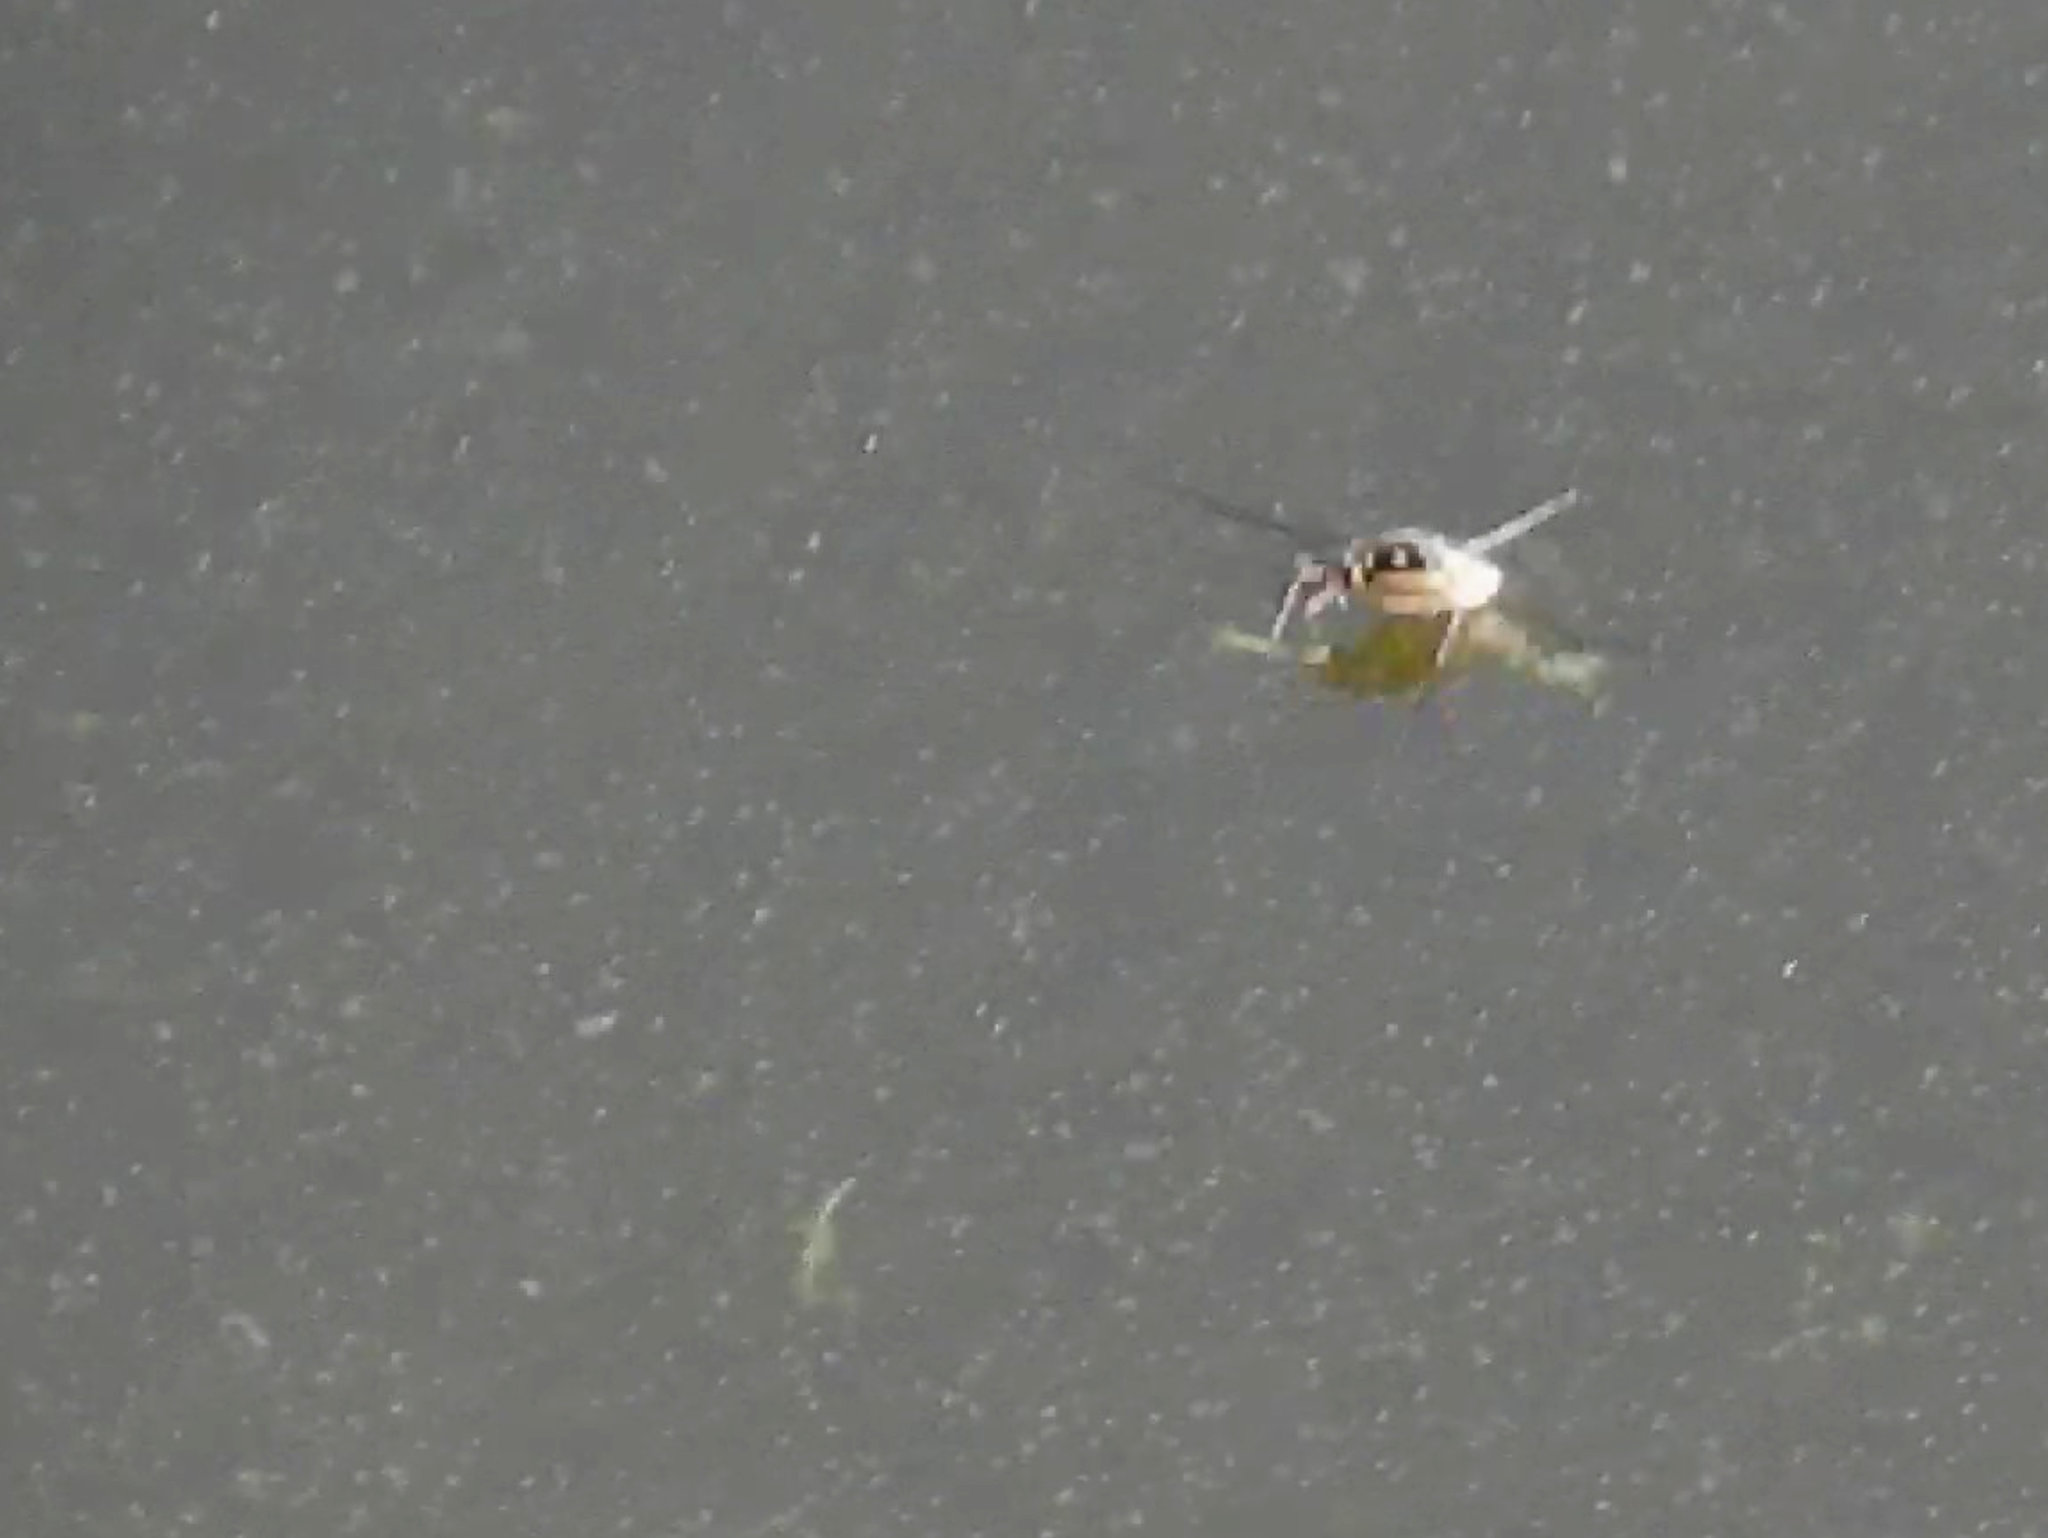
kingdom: Animalia
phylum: Arthropoda
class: Insecta
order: Hemiptera
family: Gerridae
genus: Trepobates
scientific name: Trepobates subnitidus
